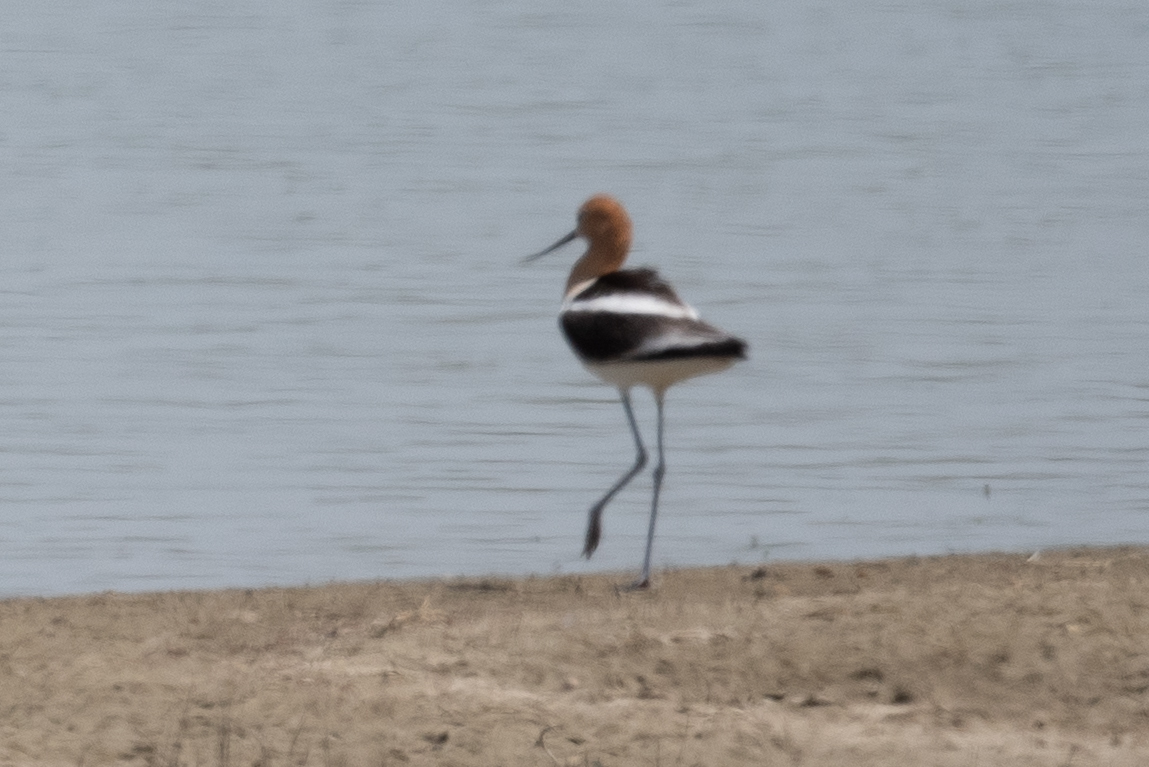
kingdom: Animalia
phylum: Chordata
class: Aves
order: Charadriiformes
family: Recurvirostridae
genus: Recurvirostra
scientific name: Recurvirostra americana
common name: American avocet
